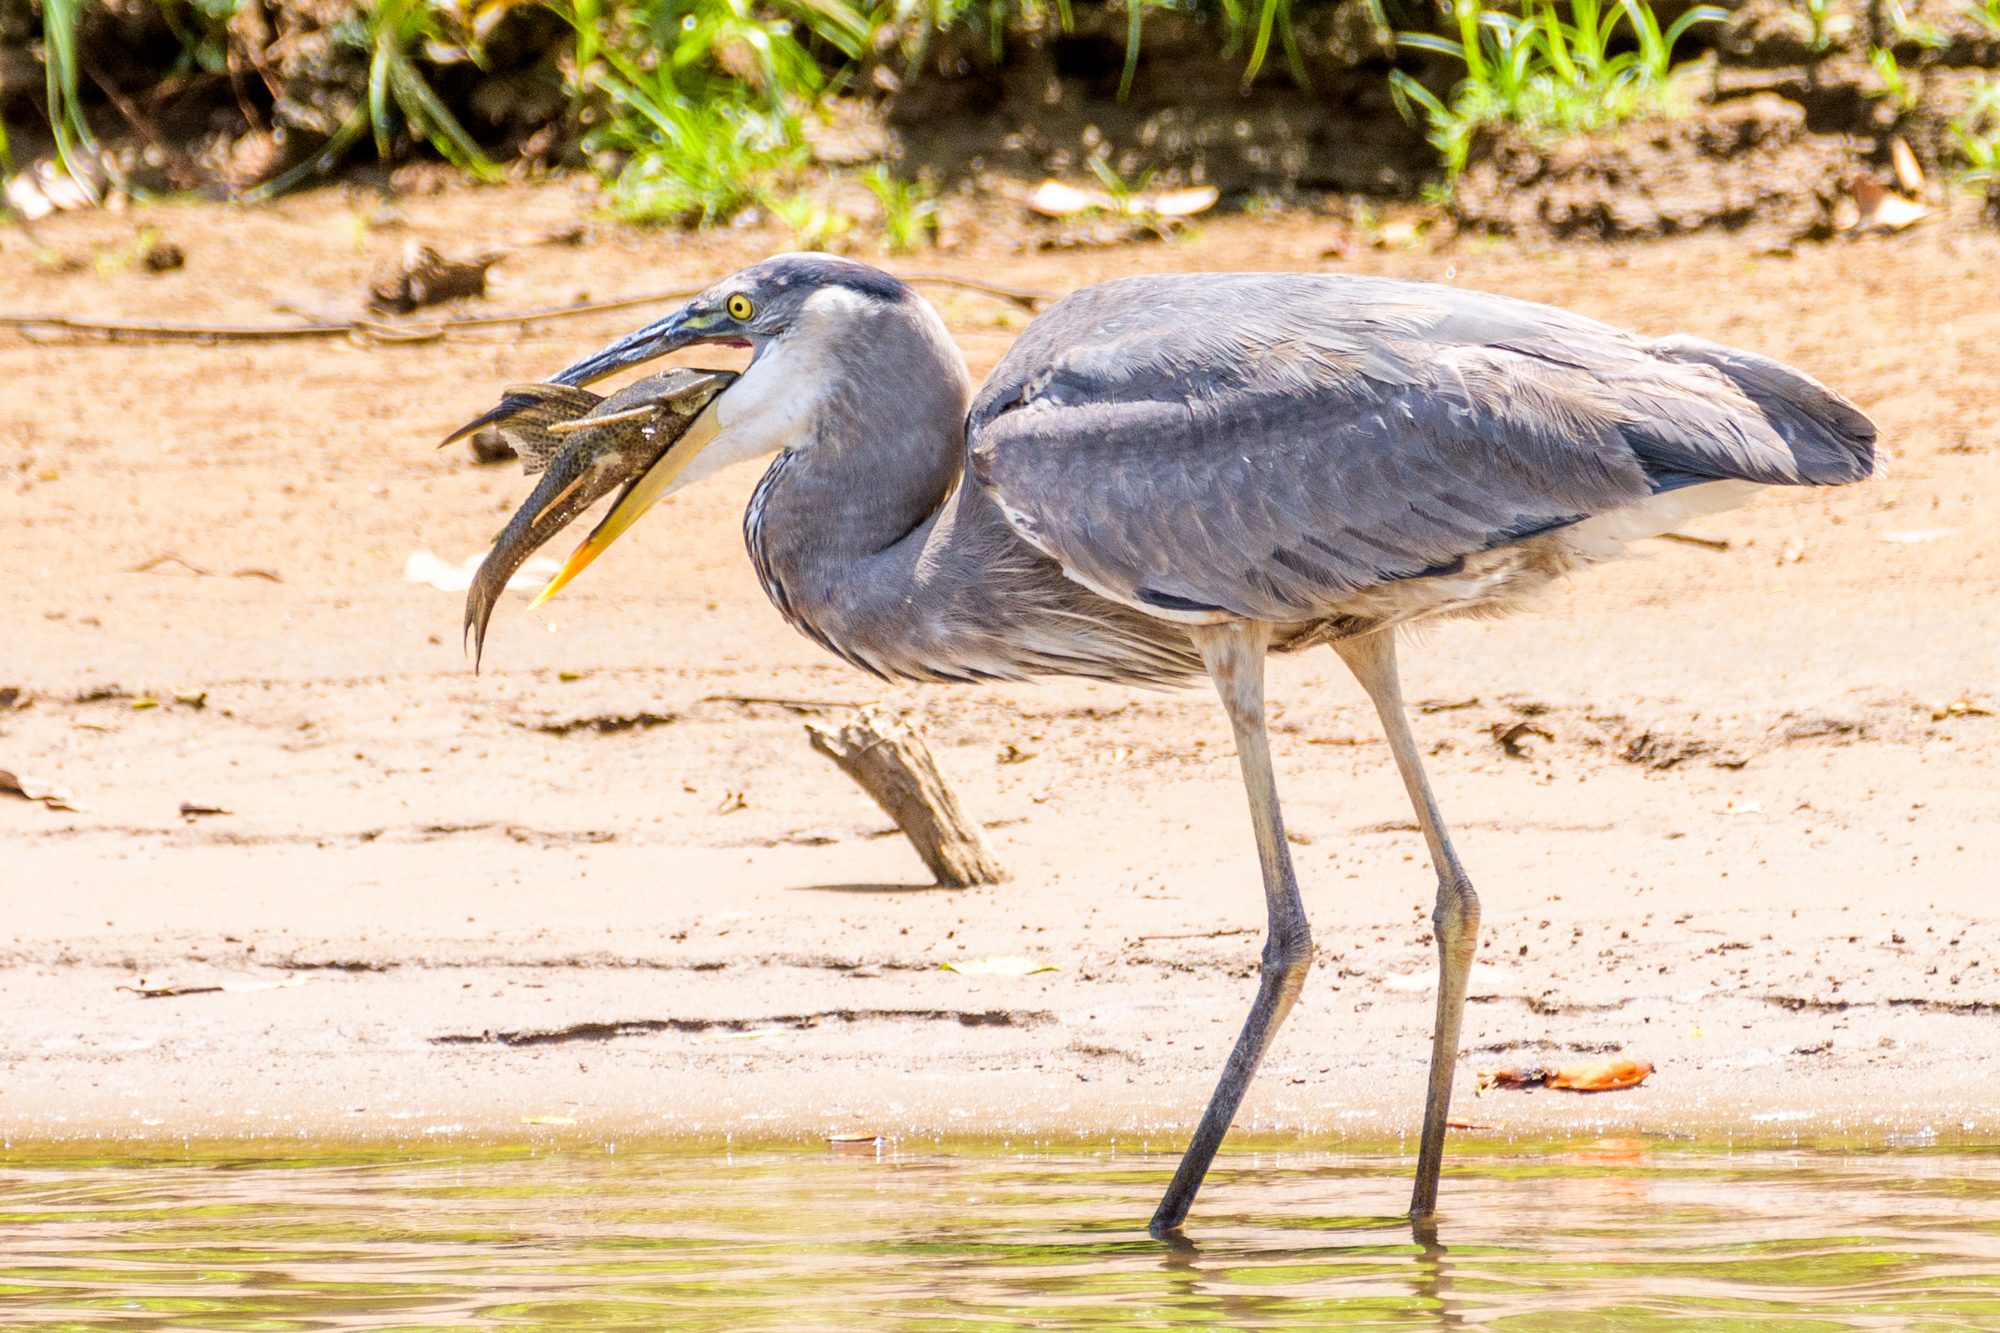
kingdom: Animalia
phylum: Chordata
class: Aves
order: Pelecaniformes
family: Ardeidae
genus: Ardea
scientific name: Ardea herodias
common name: Great blue heron
